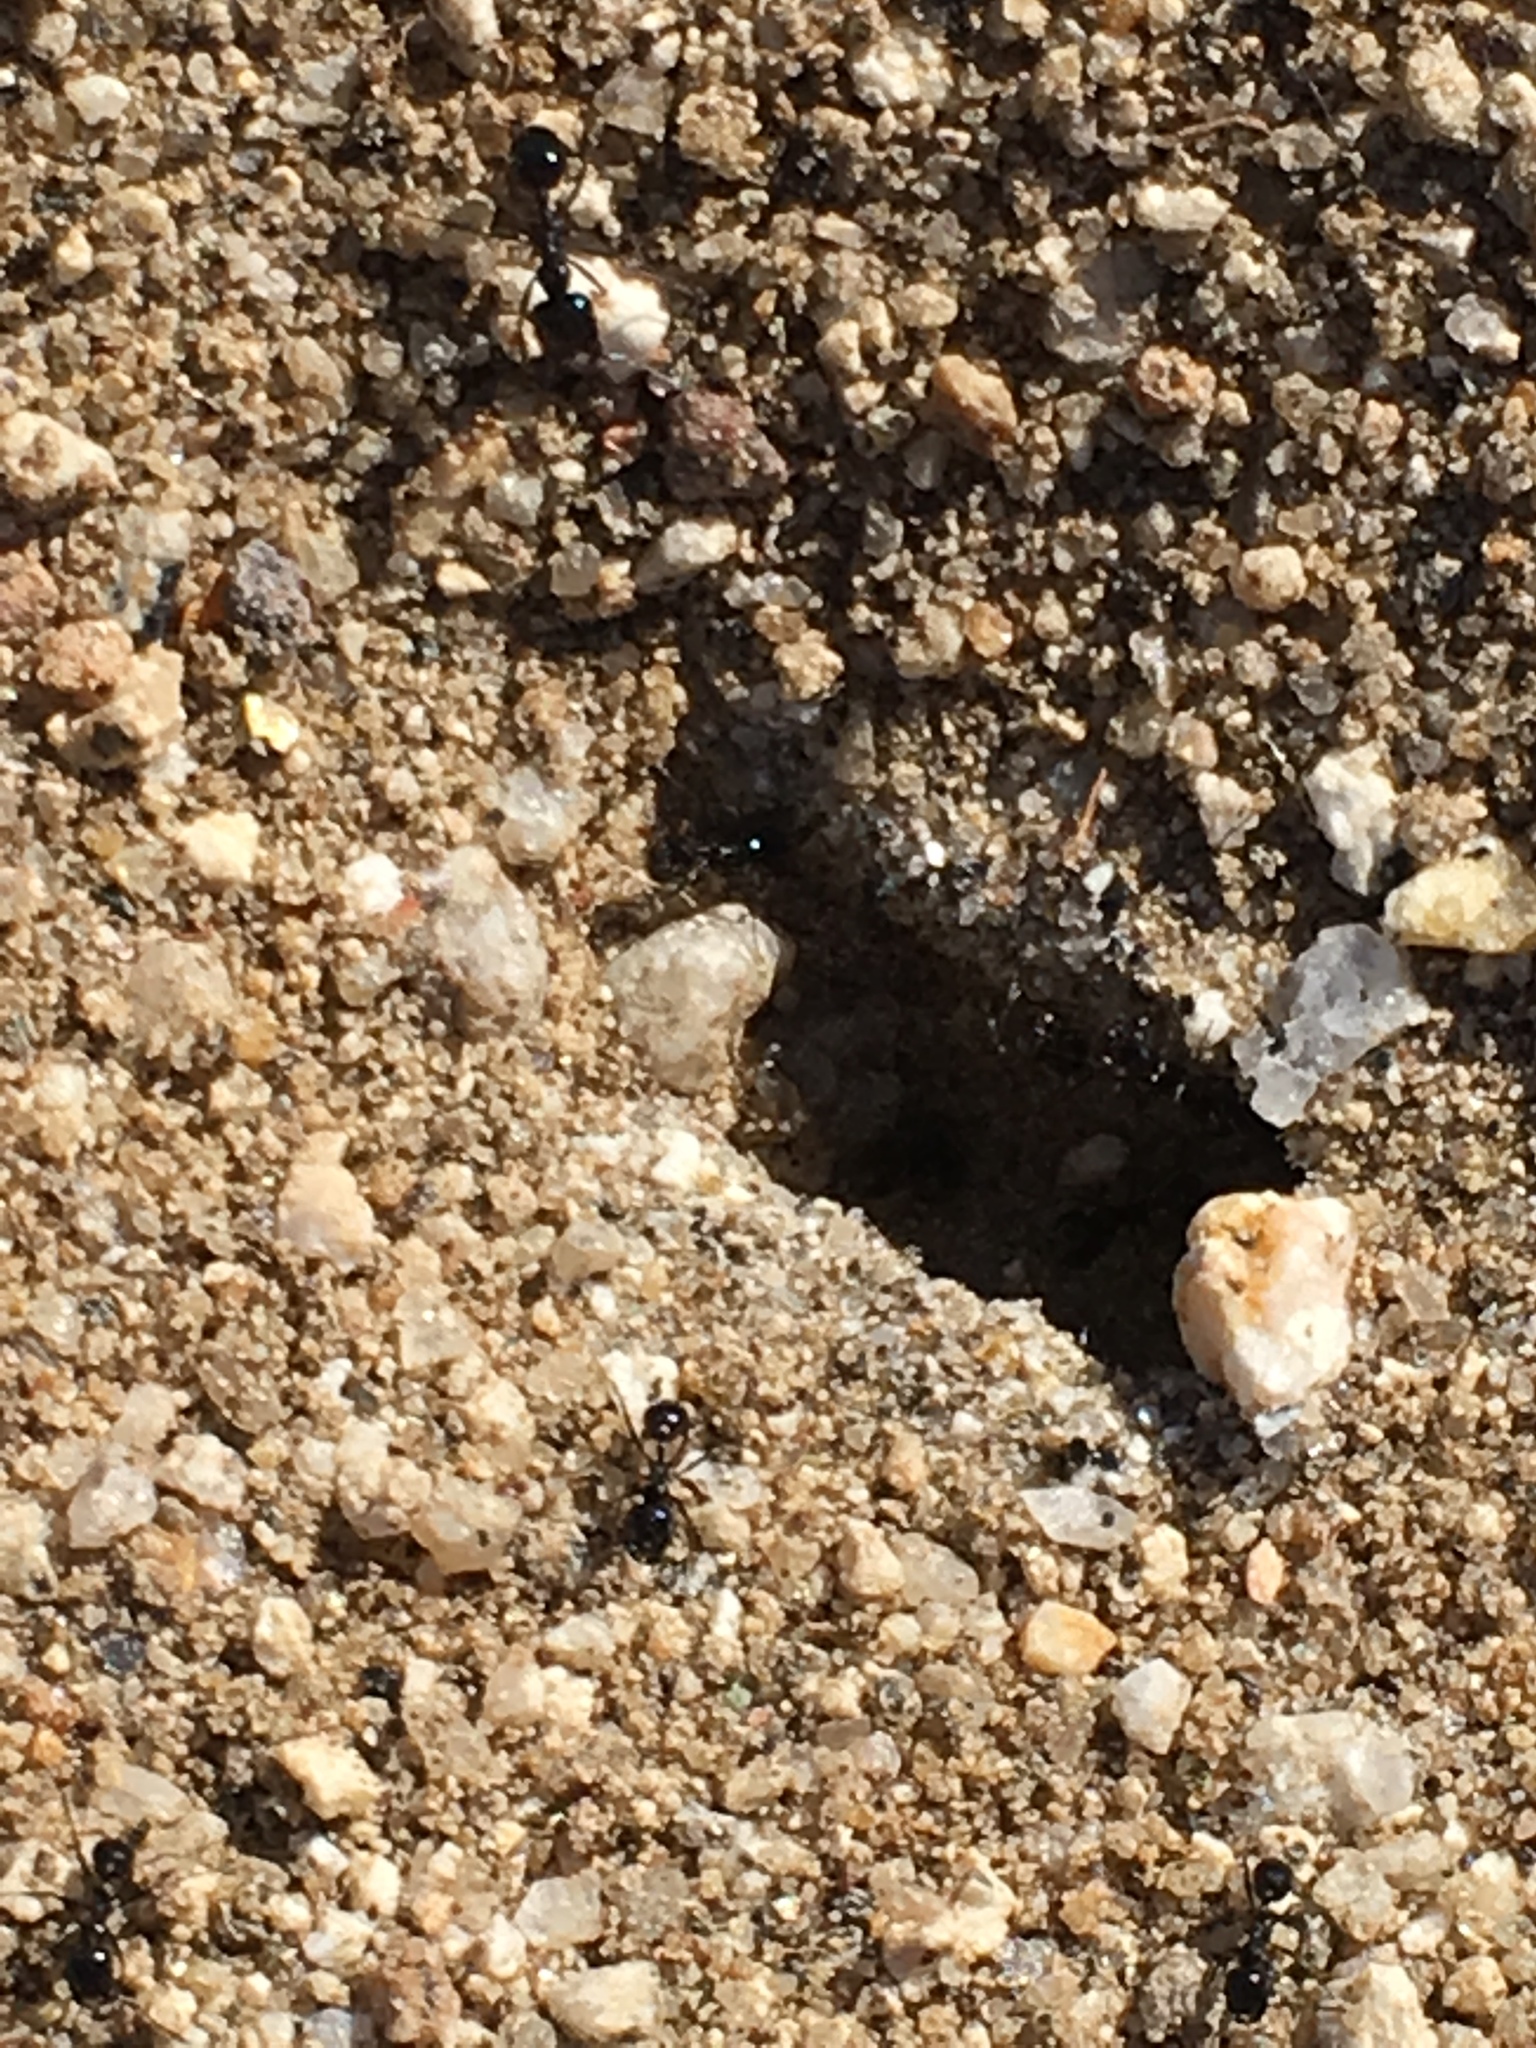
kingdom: Animalia
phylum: Arthropoda
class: Insecta
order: Hymenoptera
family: Formicidae
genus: Messor
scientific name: Messor pergandei
